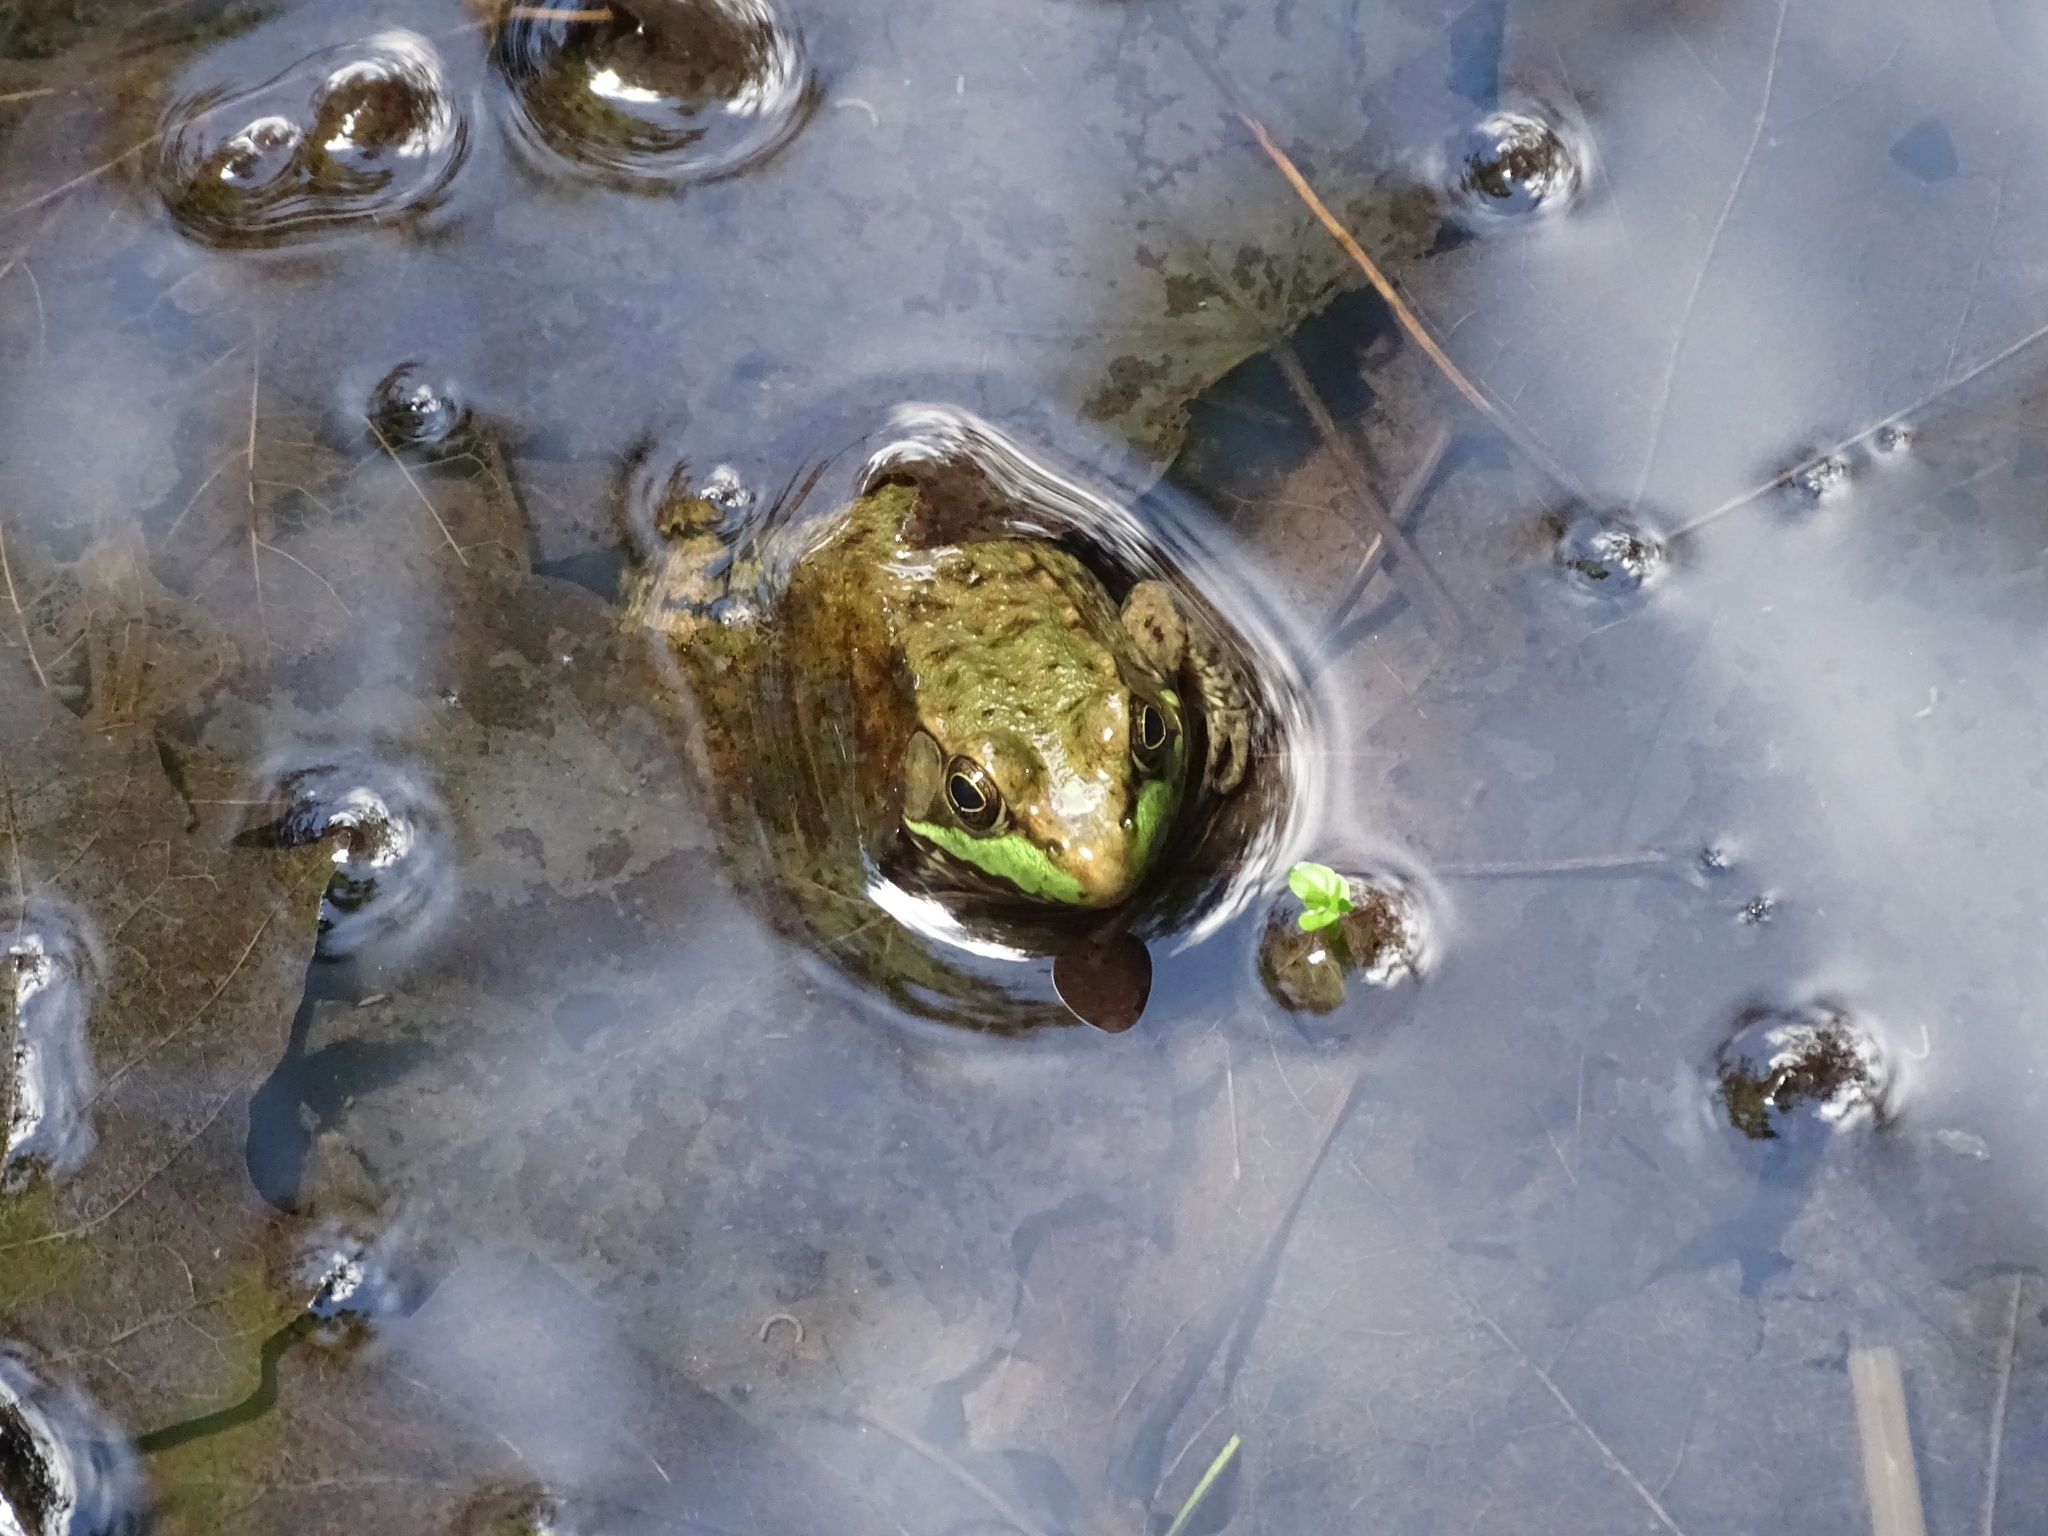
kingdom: Animalia
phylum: Chordata
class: Amphibia
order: Anura
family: Ranidae
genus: Lithobates
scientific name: Lithobates clamitans
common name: Green frog
